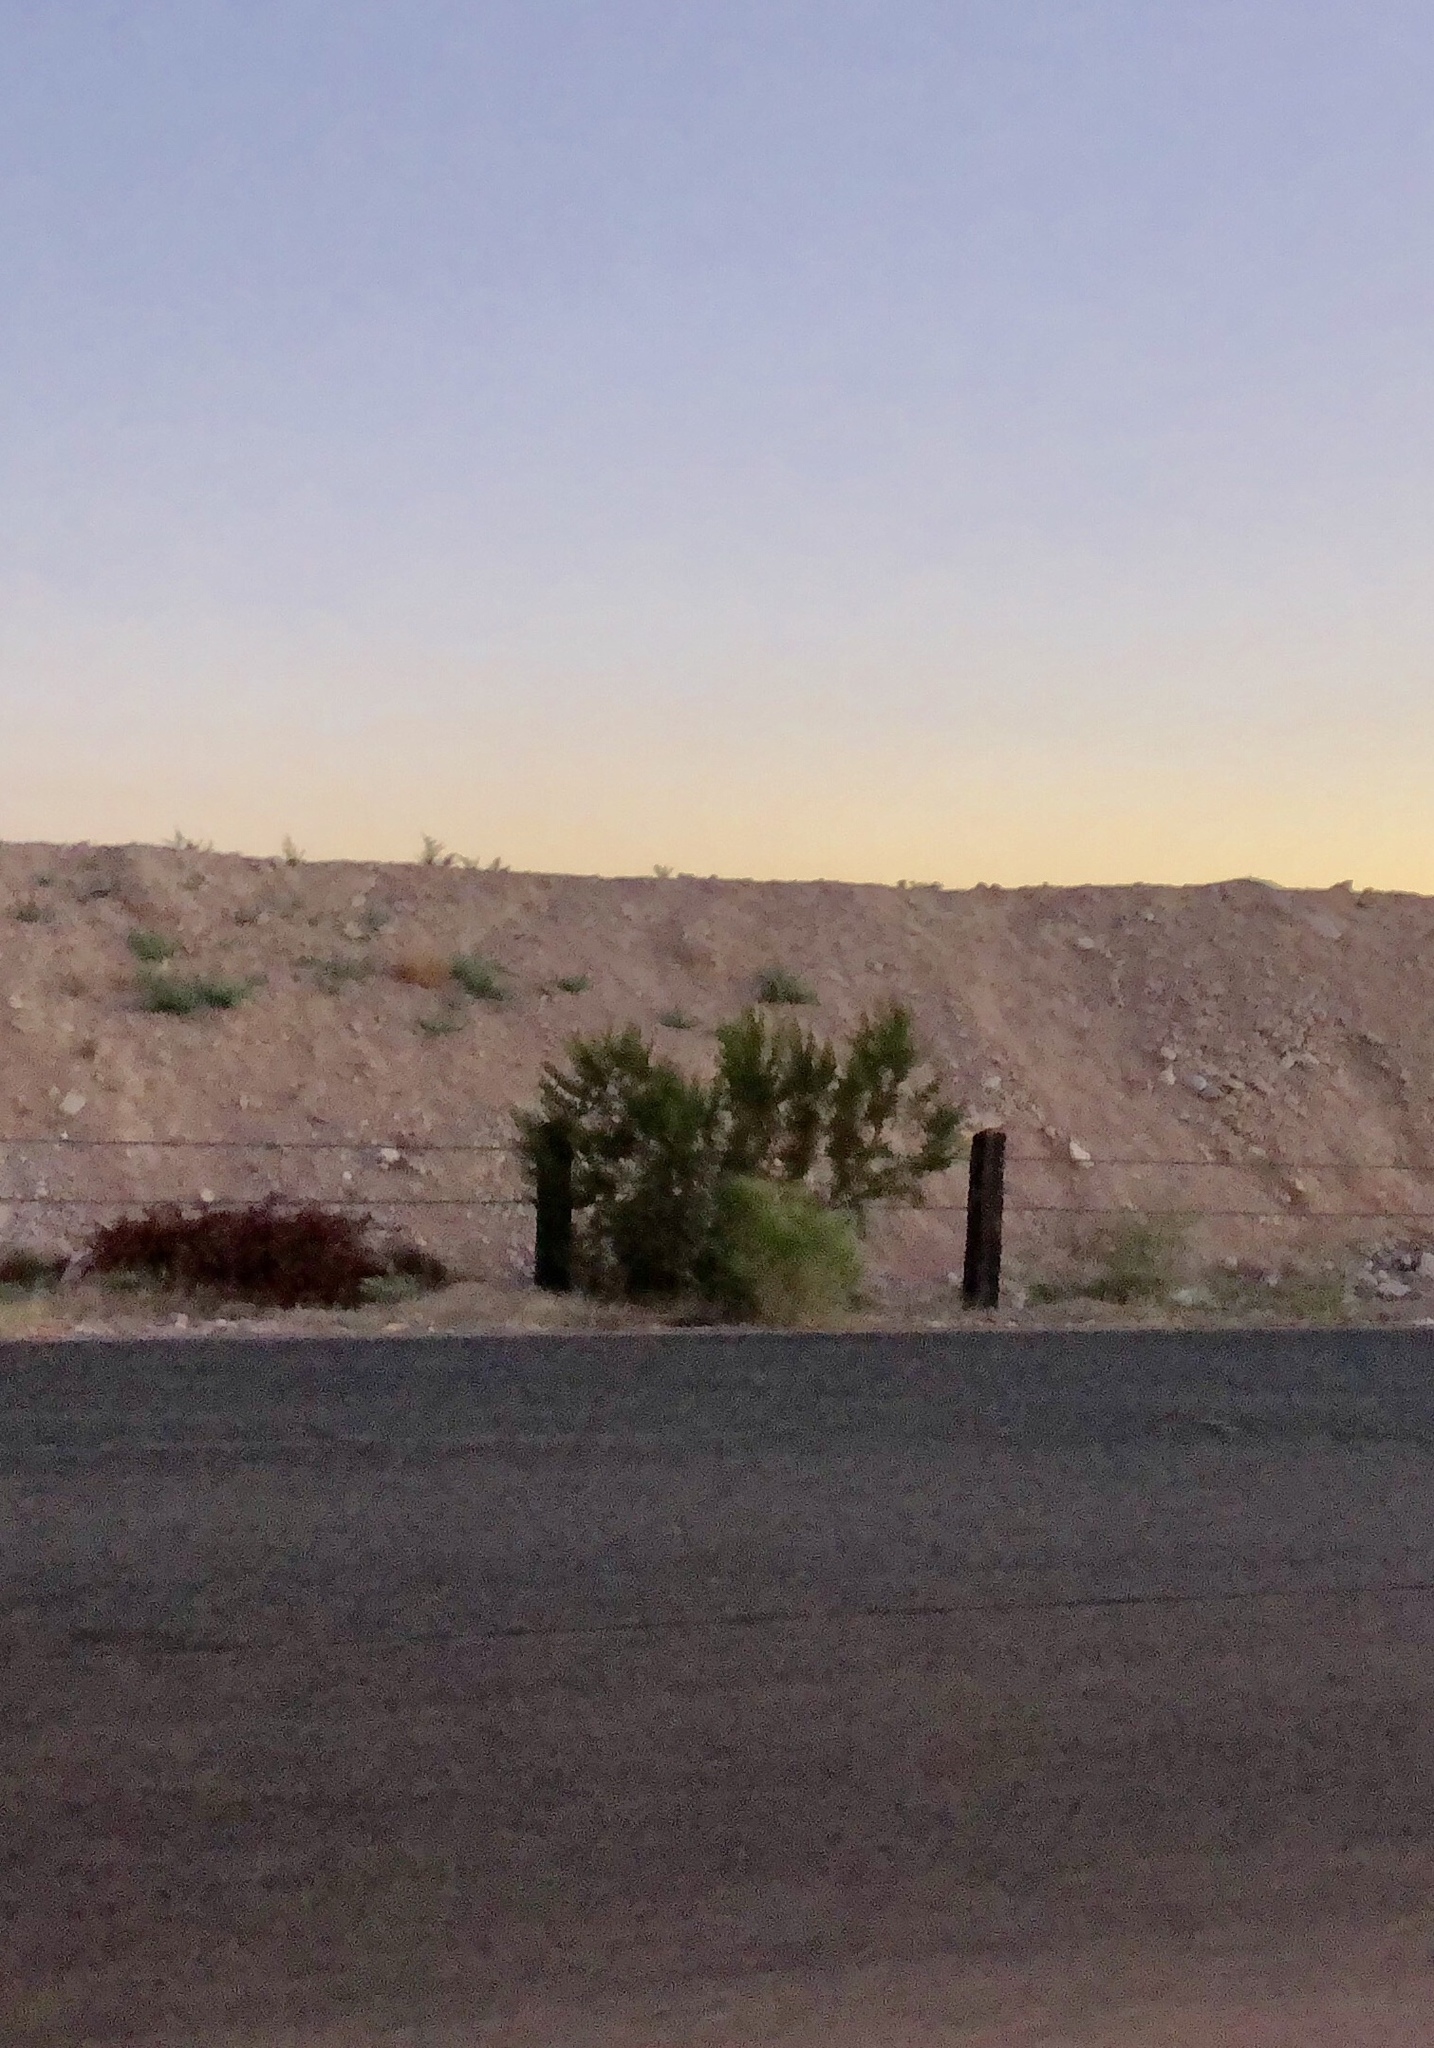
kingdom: Plantae
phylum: Tracheophyta
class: Magnoliopsida
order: Zygophyllales
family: Zygophyllaceae
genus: Larrea
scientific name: Larrea tridentata
